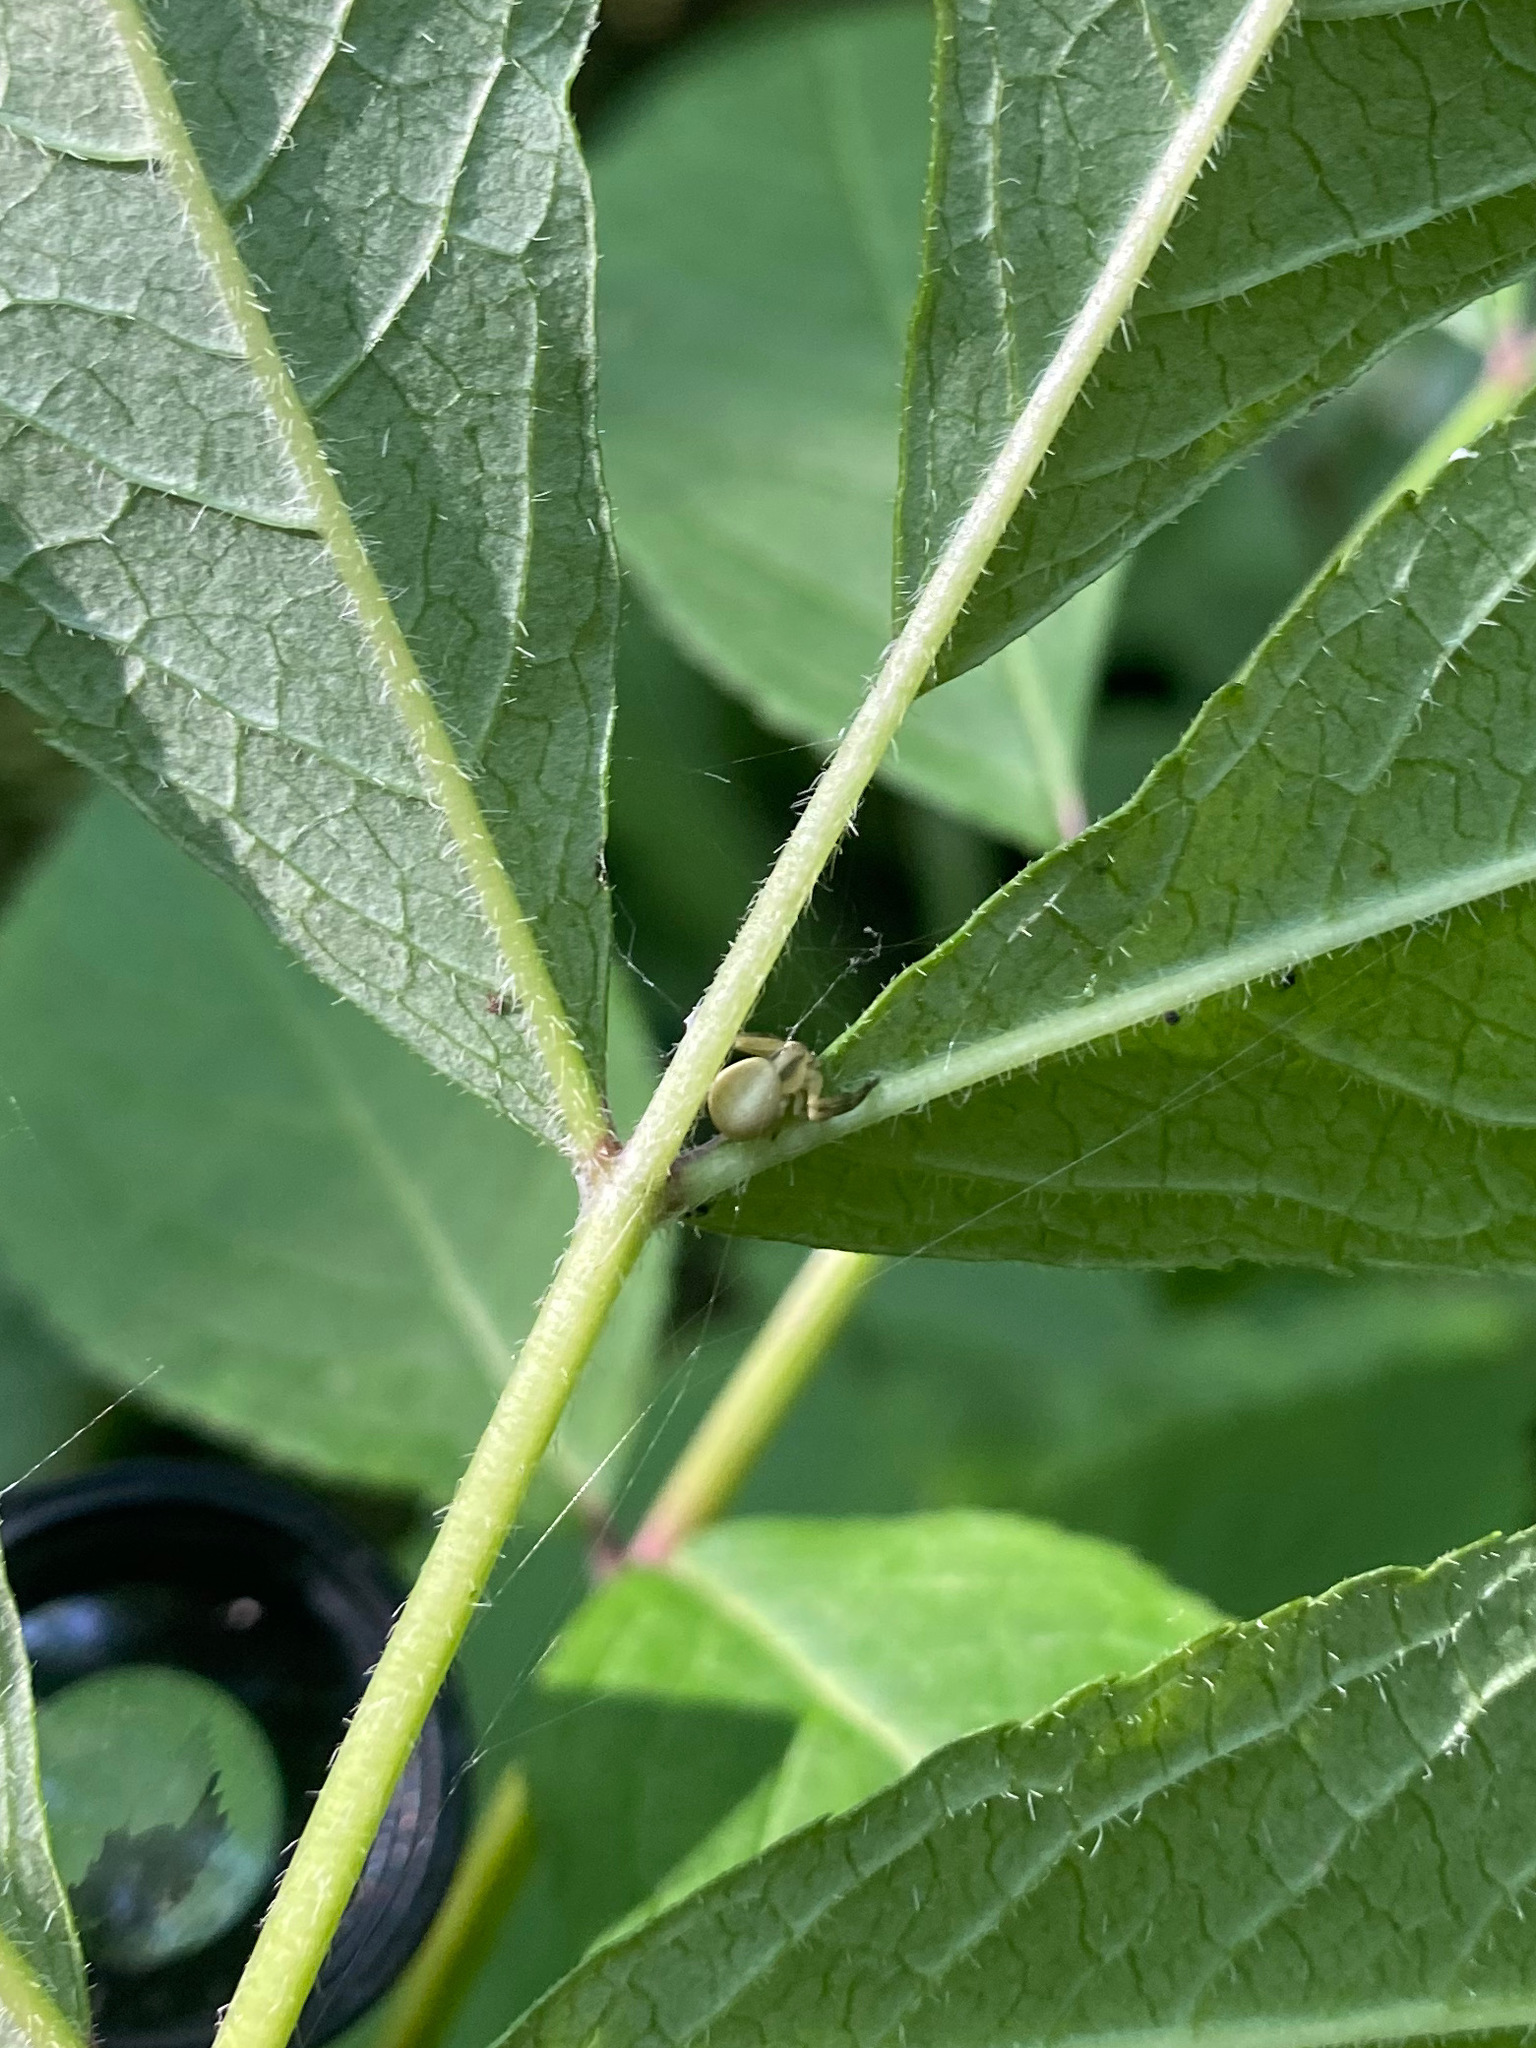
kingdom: Animalia
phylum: Arthropoda
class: Arachnida
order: Araneae
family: Thomisidae
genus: Misumena
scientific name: Misumena vatia
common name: Goldenrod crab spider
